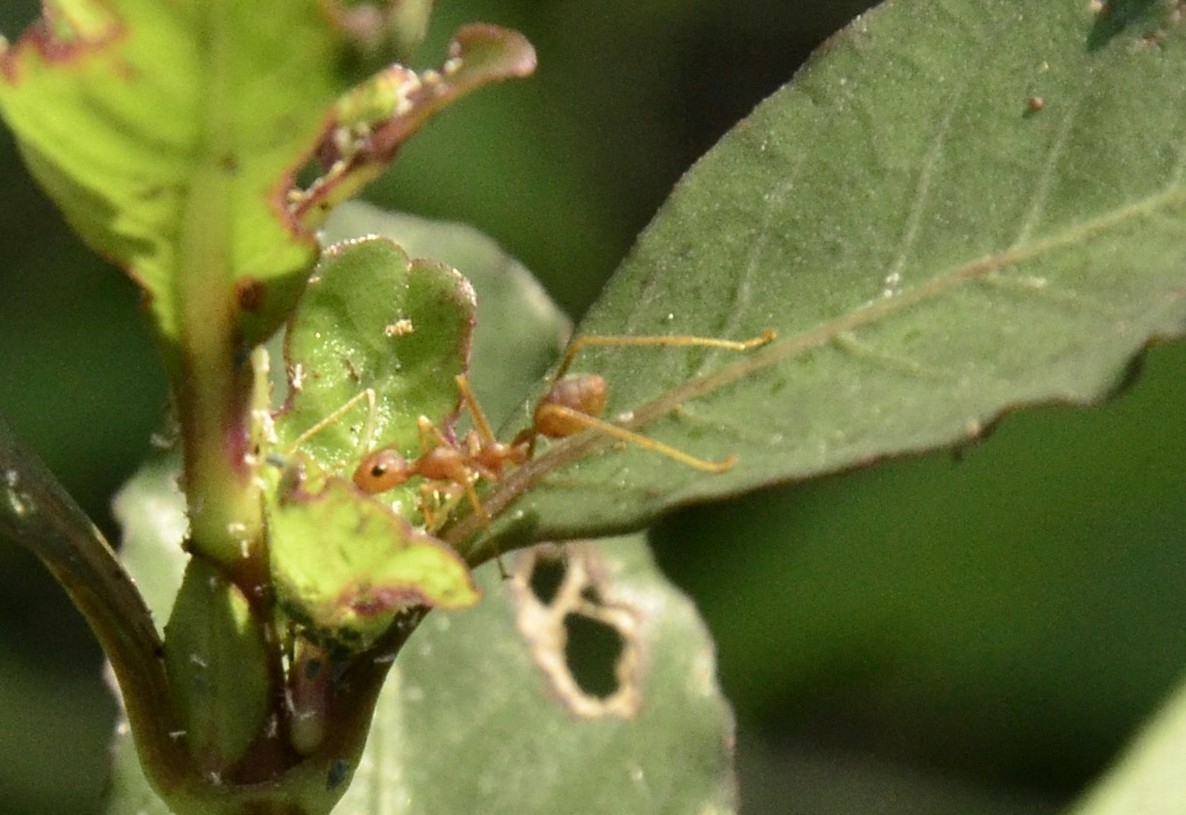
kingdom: Animalia
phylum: Arthropoda
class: Insecta
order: Hymenoptera
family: Formicidae
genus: Oecophylla
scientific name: Oecophylla smaragdina
